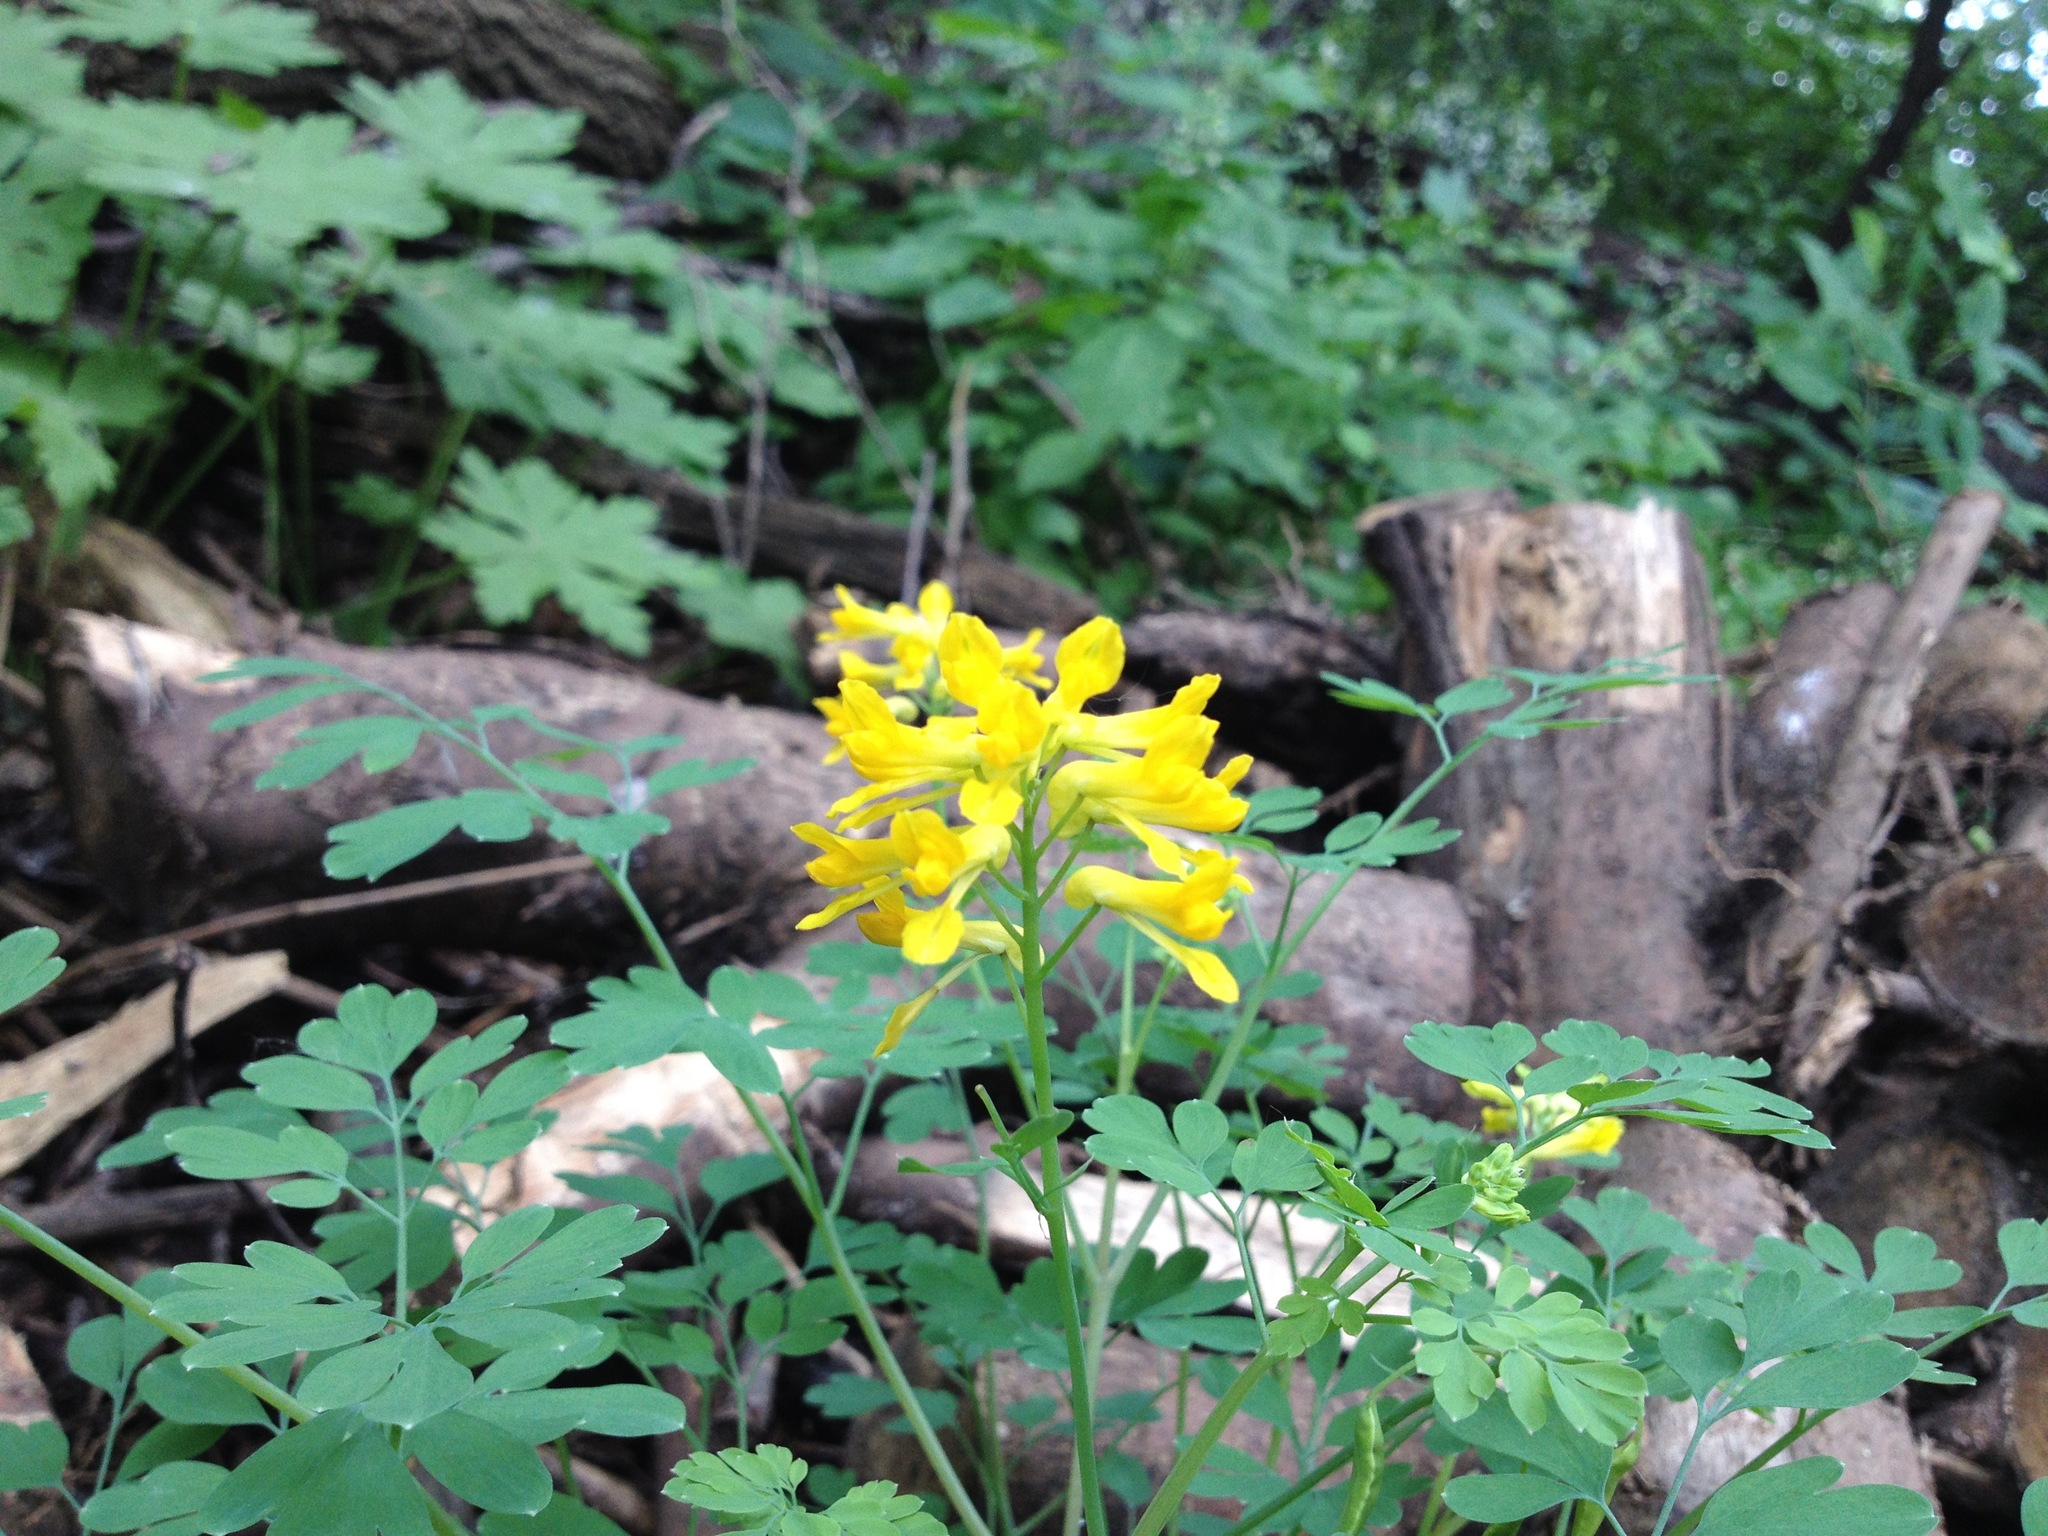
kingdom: Plantae
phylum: Tracheophyta
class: Magnoliopsida
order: Ranunculales
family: Papaveraceae
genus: Corydalis
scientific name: Corydalis aurea
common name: Golden corydalis
